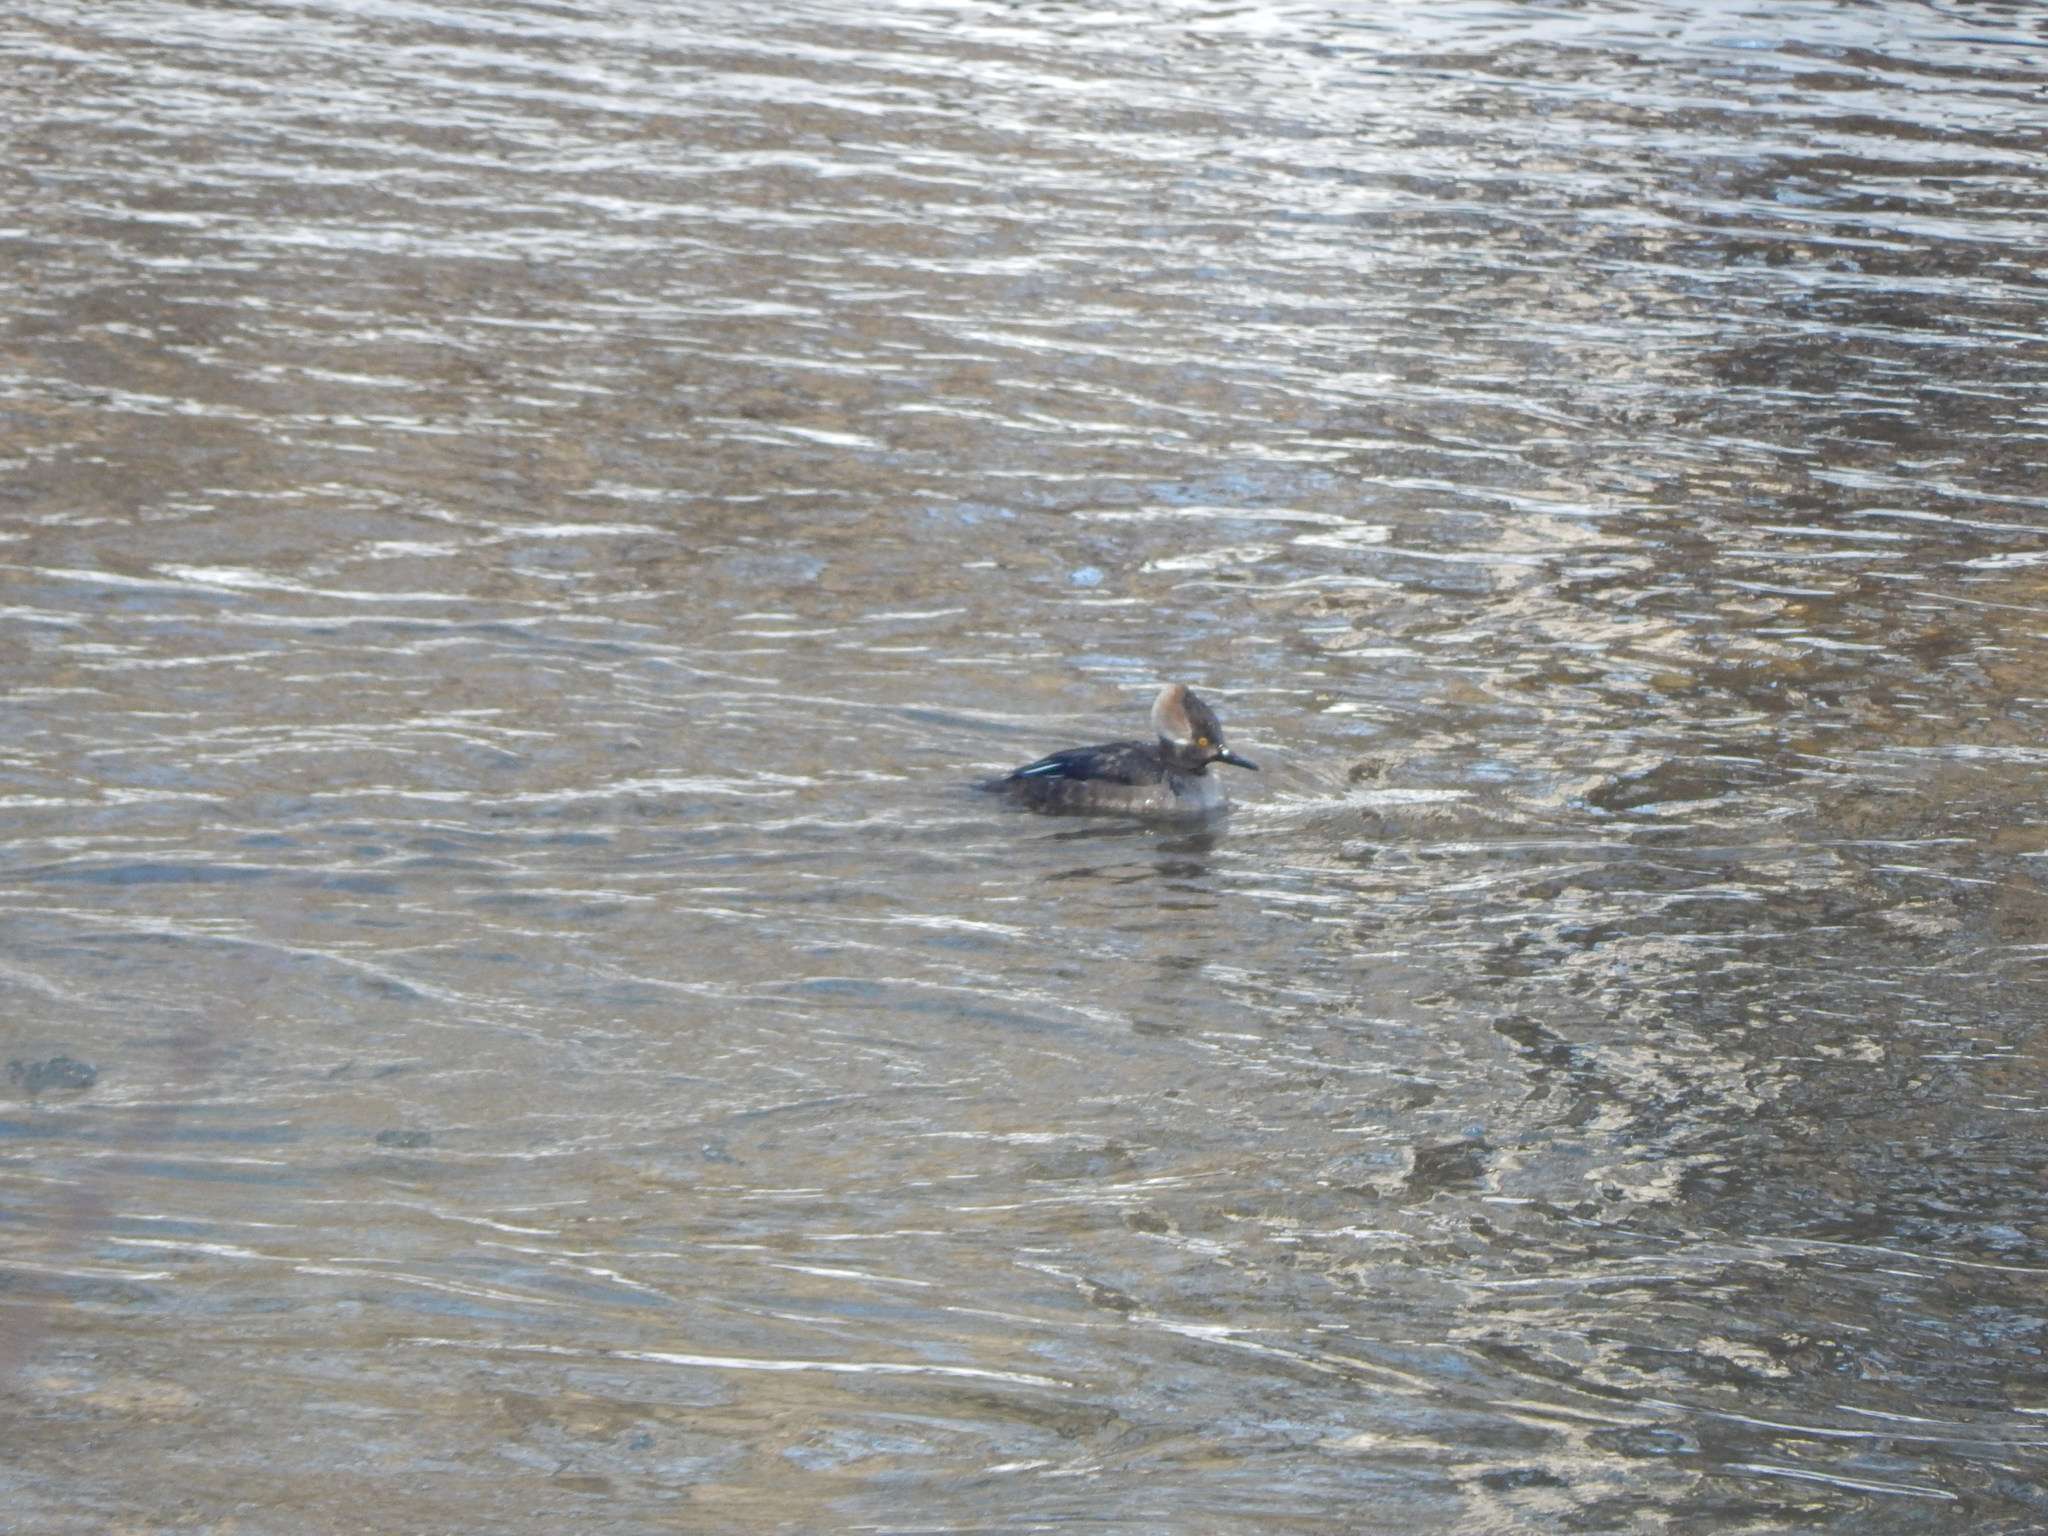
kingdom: Animalia
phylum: Chordata
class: Aves
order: Anseriformes
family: Anatidae
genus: Lophodytes
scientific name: Lophodytes cucullatus
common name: Hooded merganser
